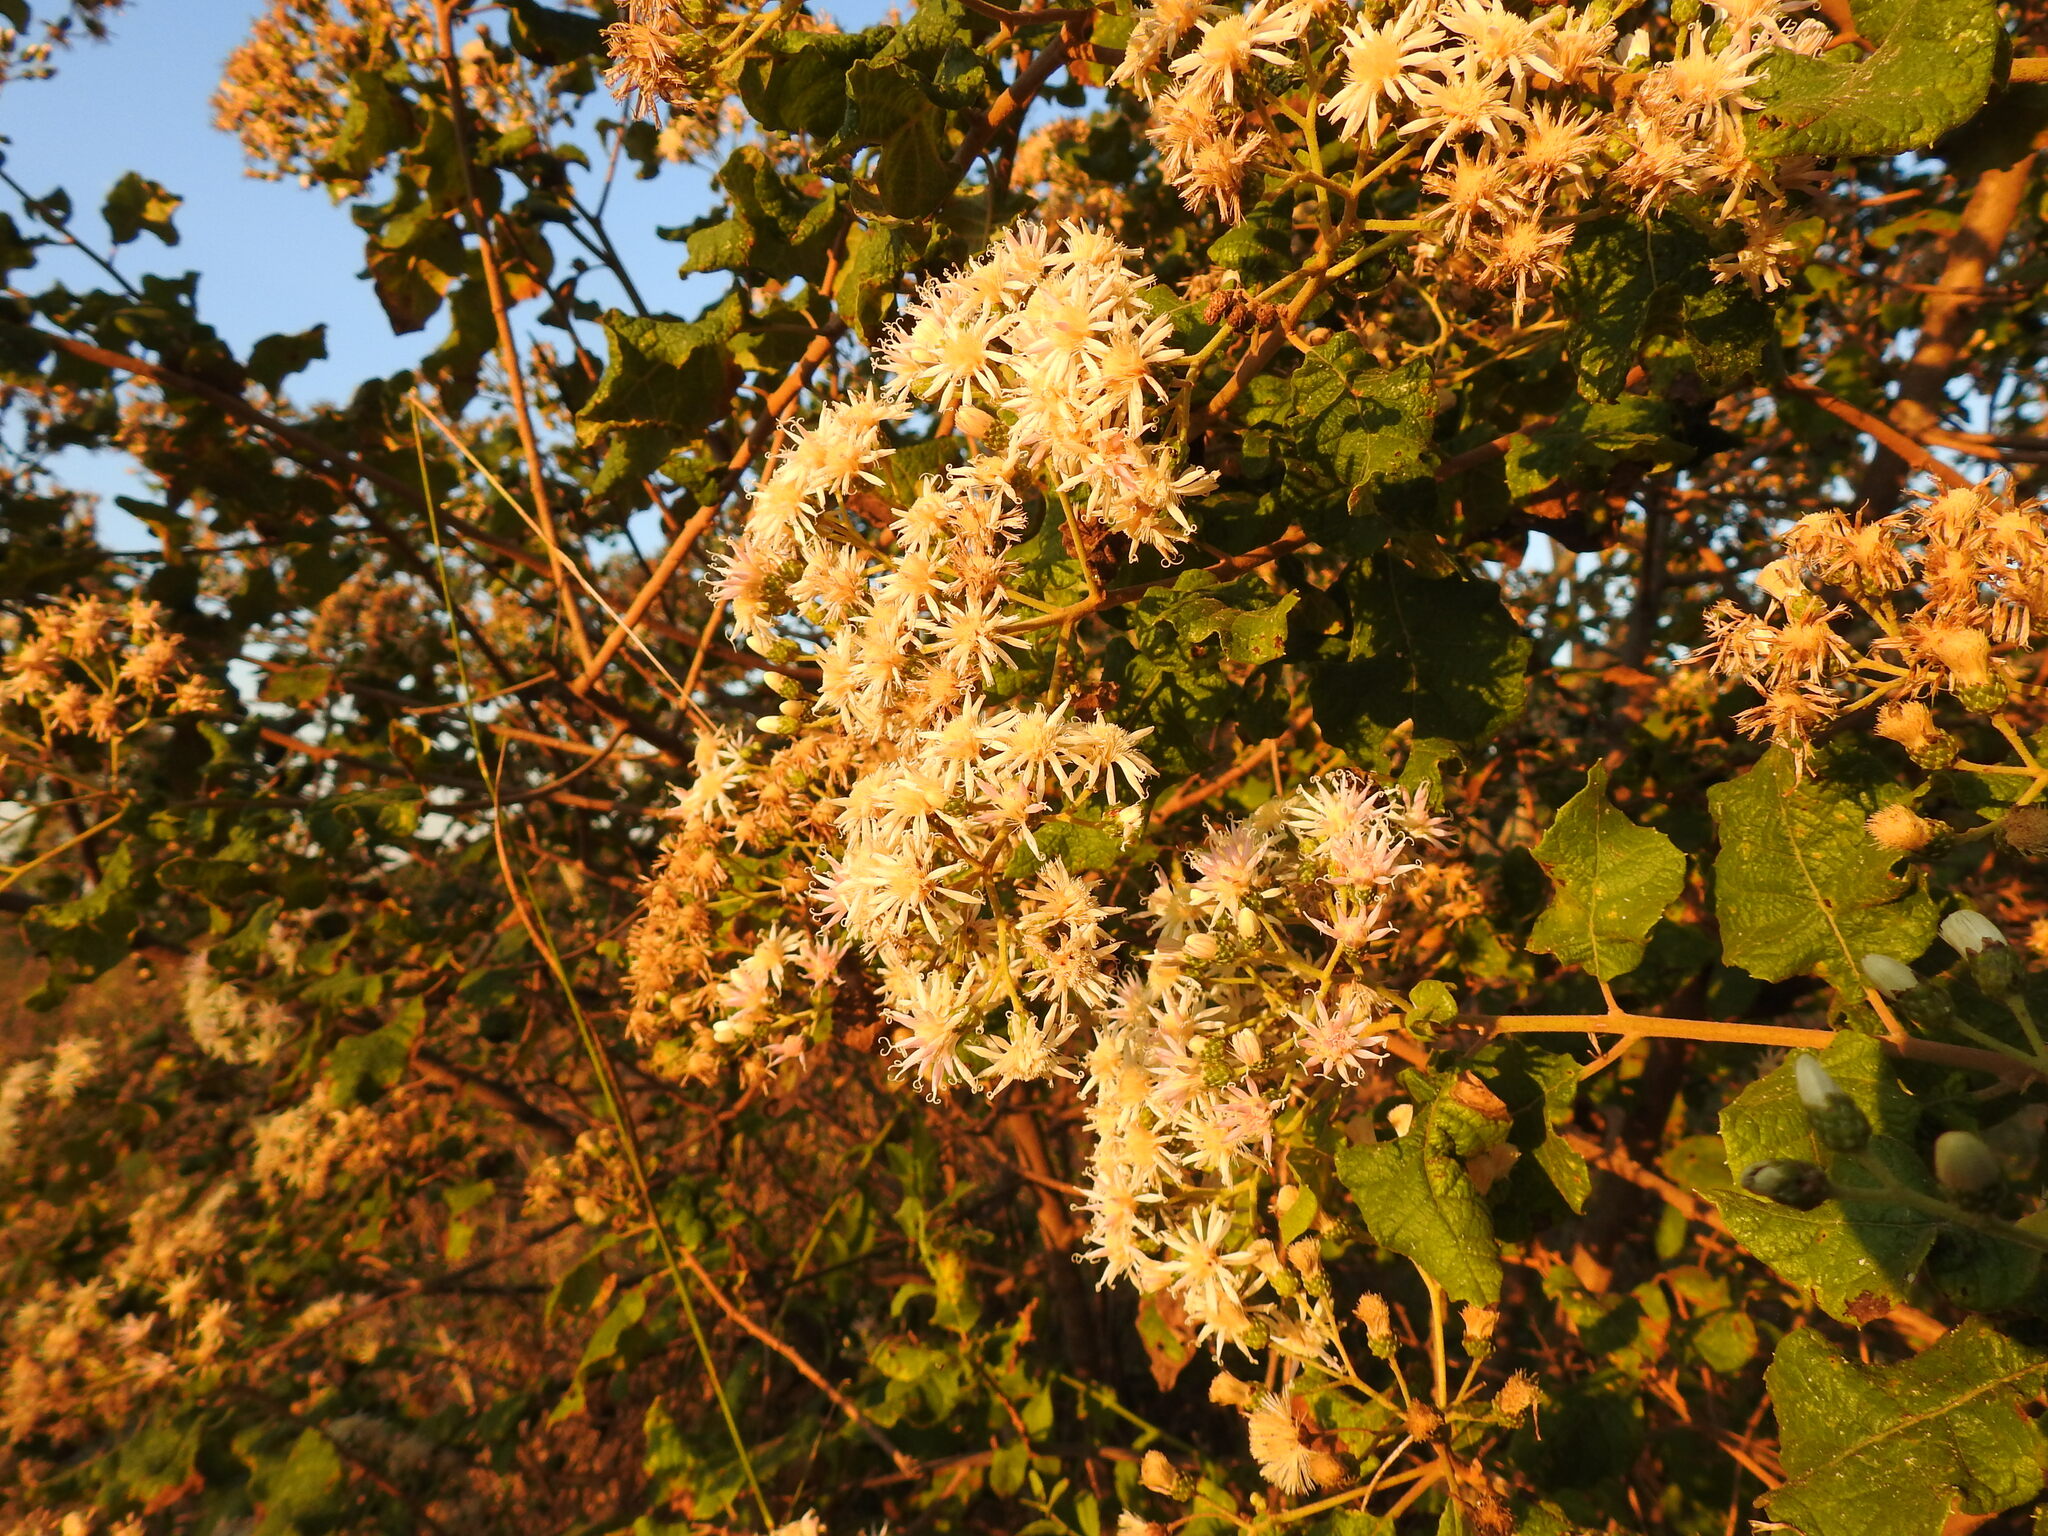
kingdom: Plantae
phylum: Tracheophyta
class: Magnoliopsida
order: Asterales
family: Asteraceae
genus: Vernonia
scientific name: Vernonia colorata
